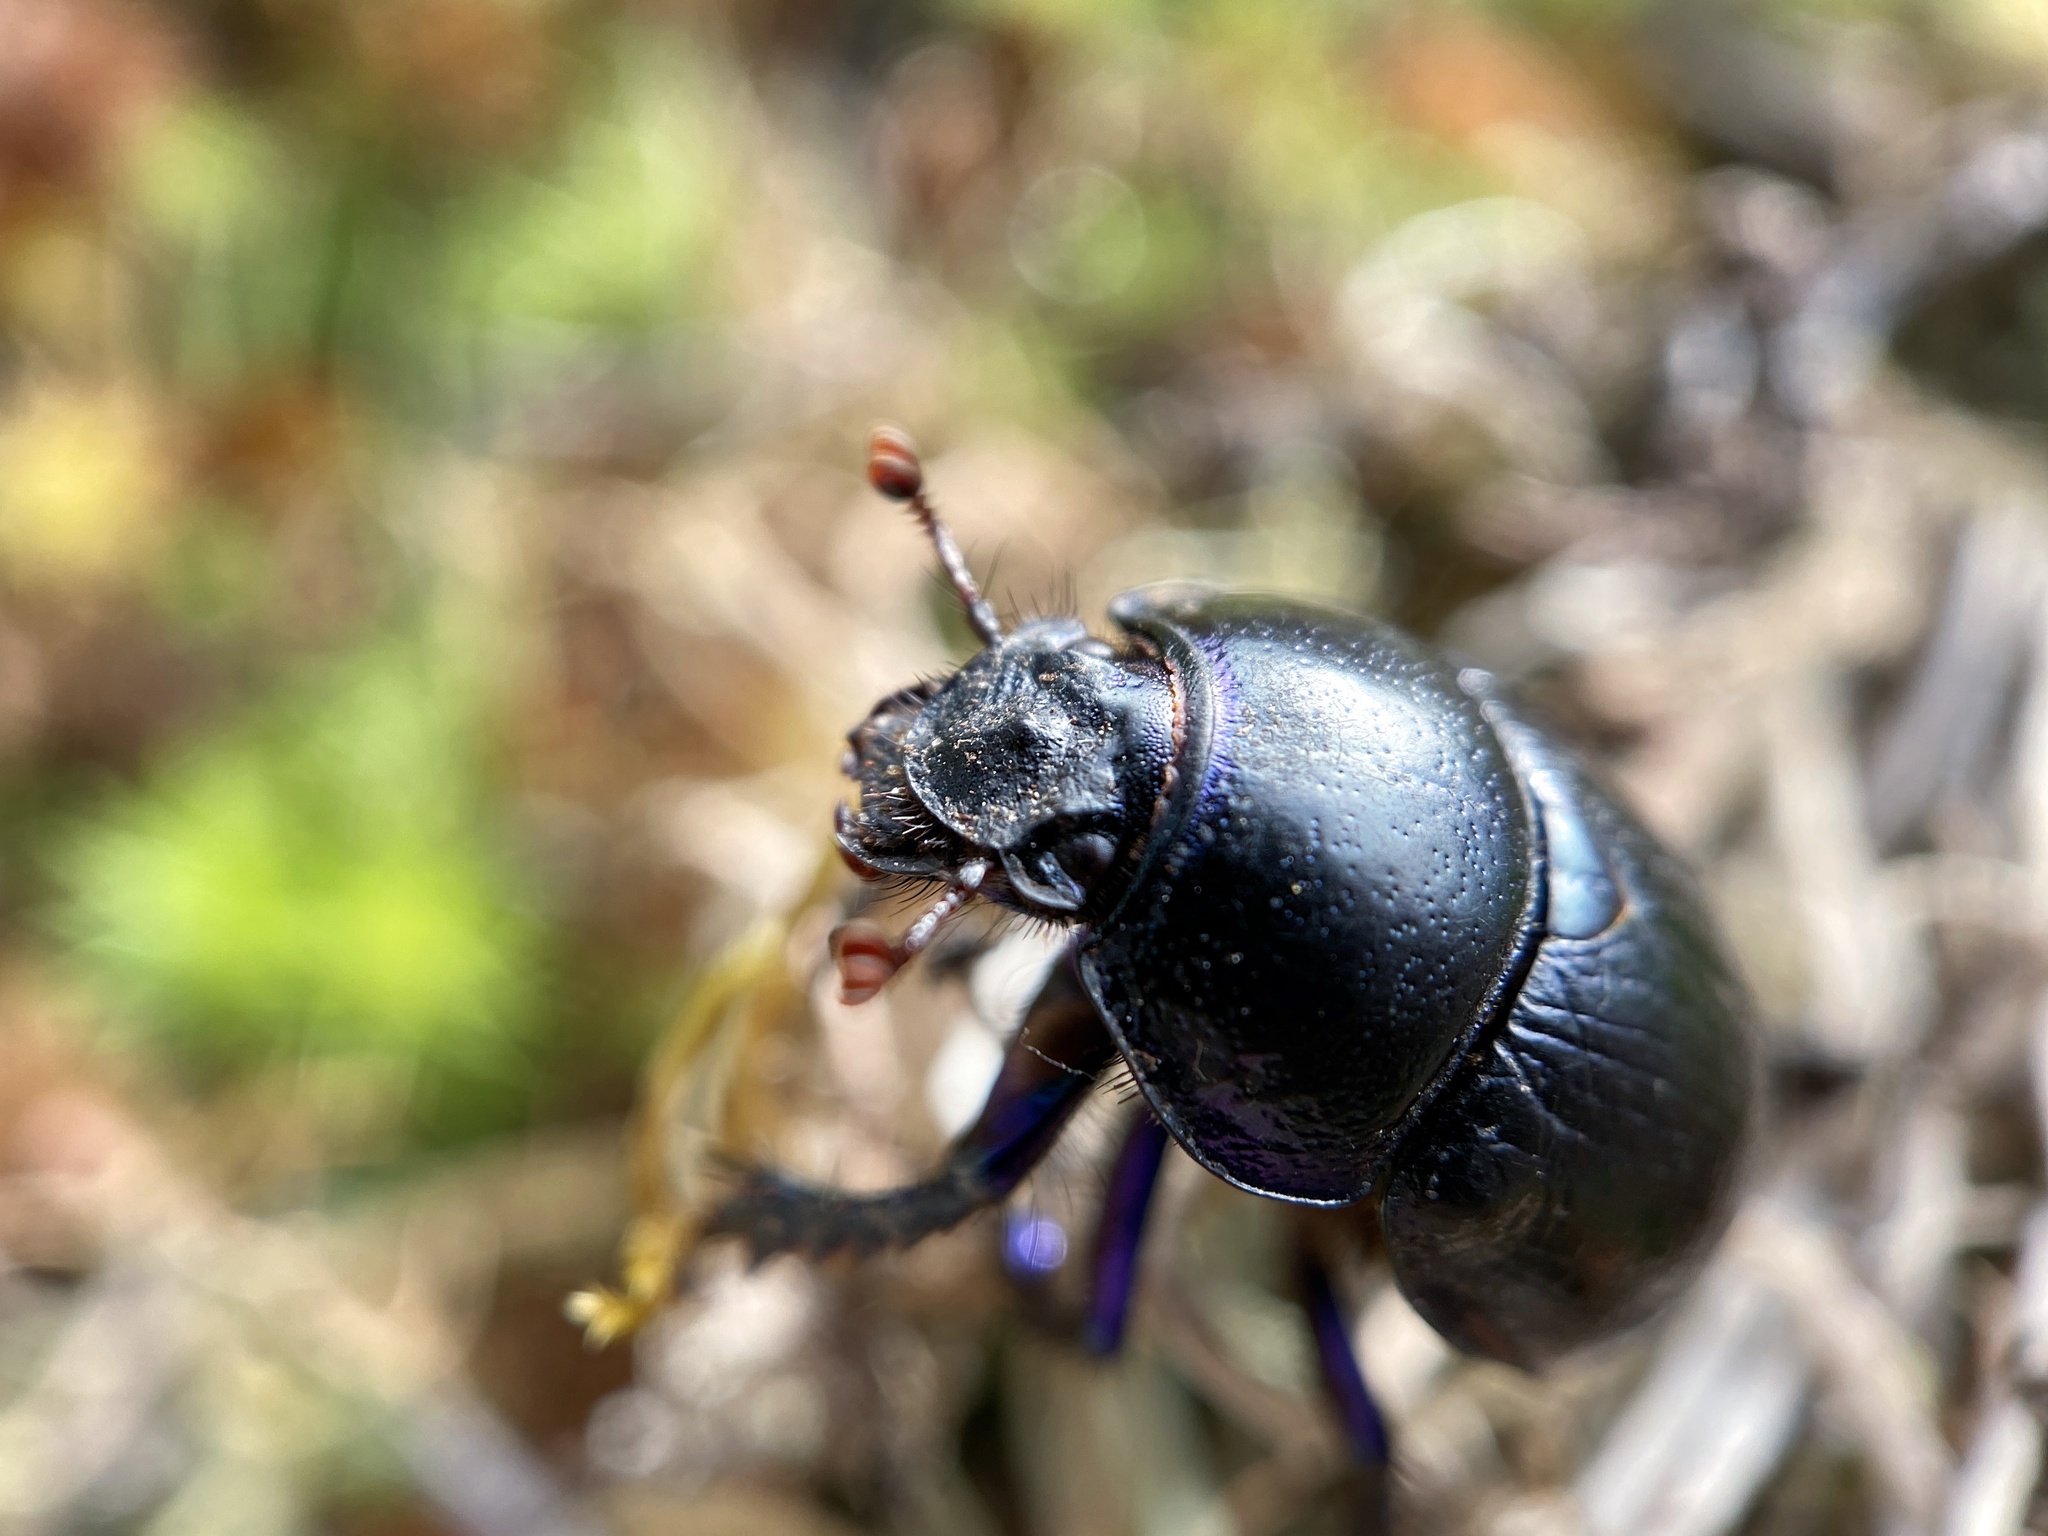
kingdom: Animalia
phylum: Arthropoda
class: Insecta
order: Coleoptera
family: Geotrupidae
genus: Anoplotrupes
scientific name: Anoplotrupes stercorosus
